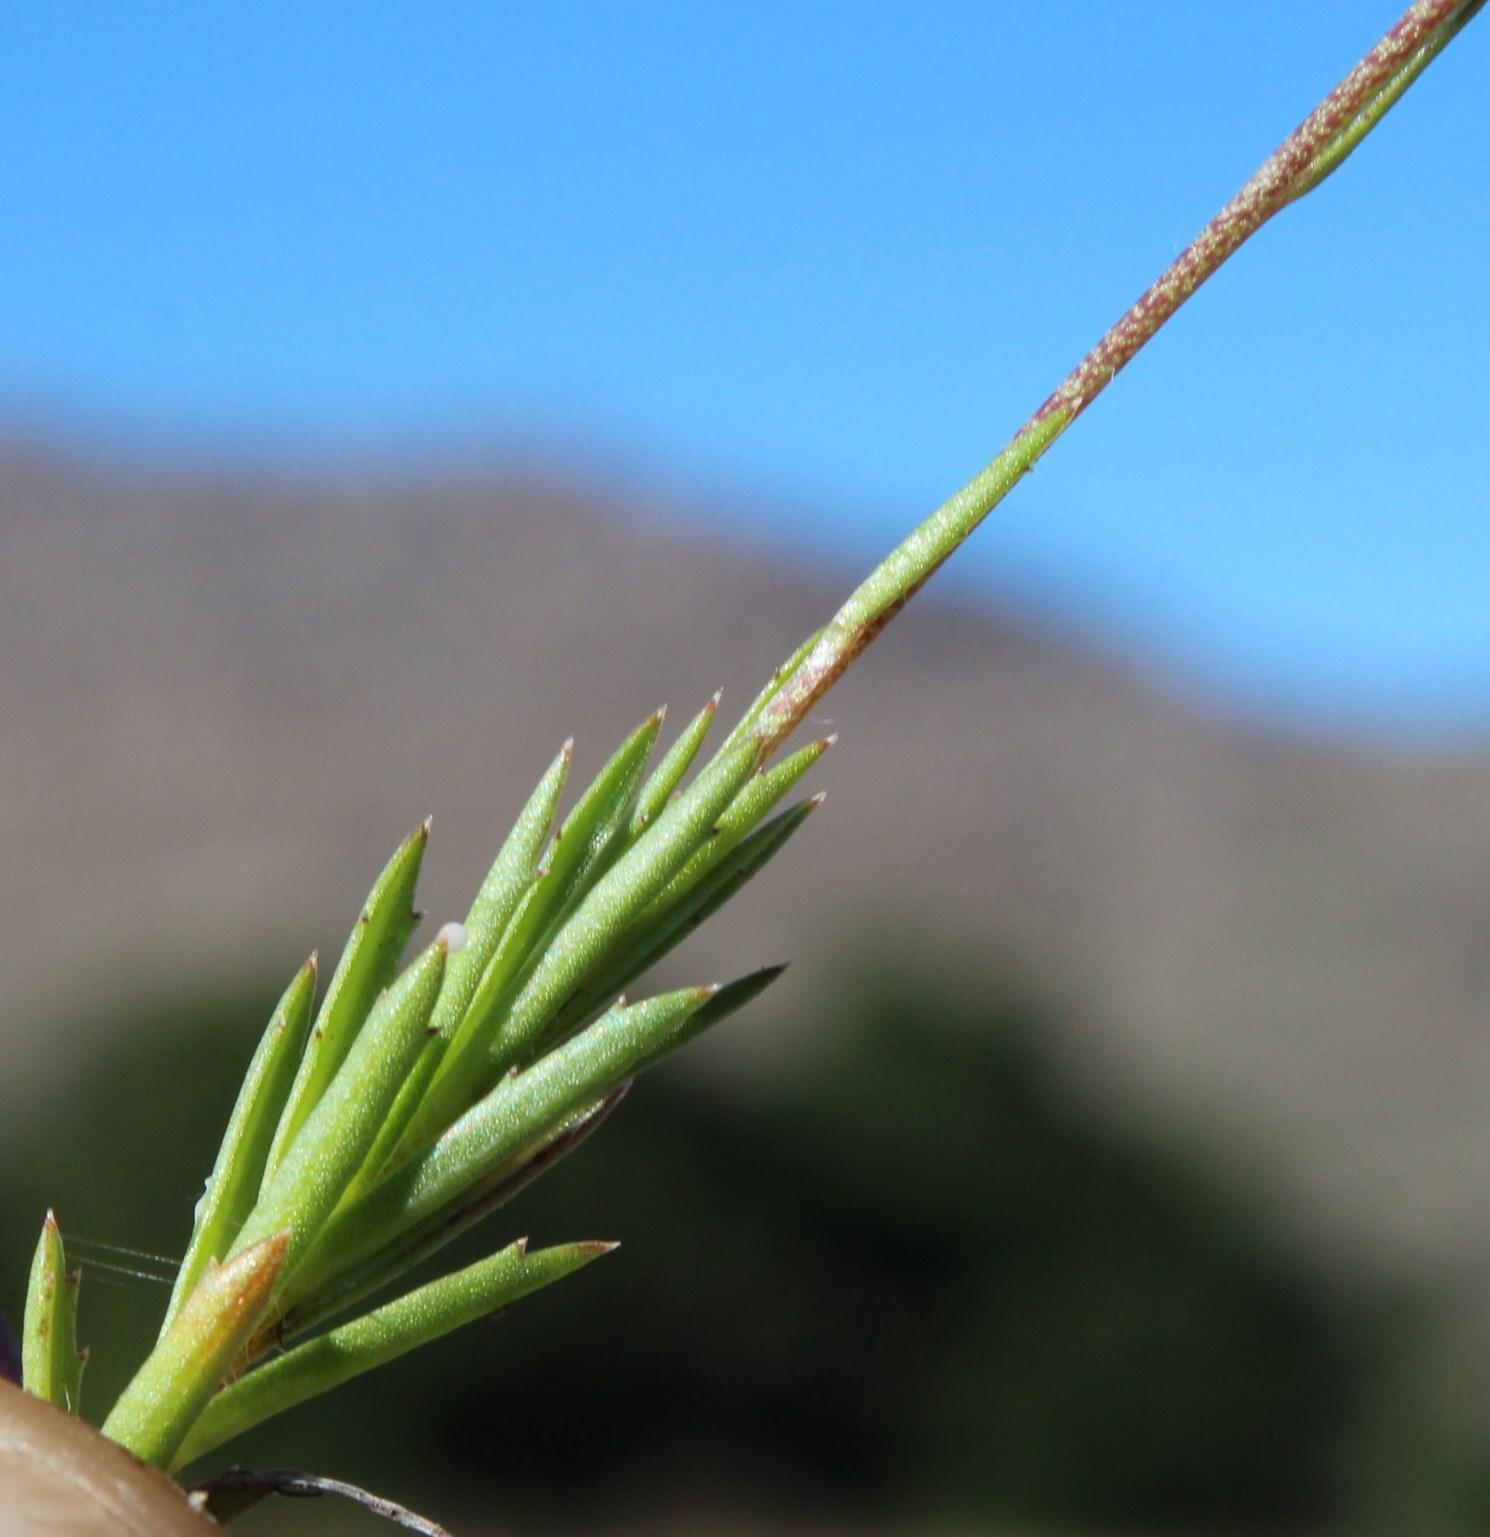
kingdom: Plantae
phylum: Tracheophyta
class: Magnoliopsida
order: Asterales
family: Campanulaceae
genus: Monopsis
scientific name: Monopsis lutea
